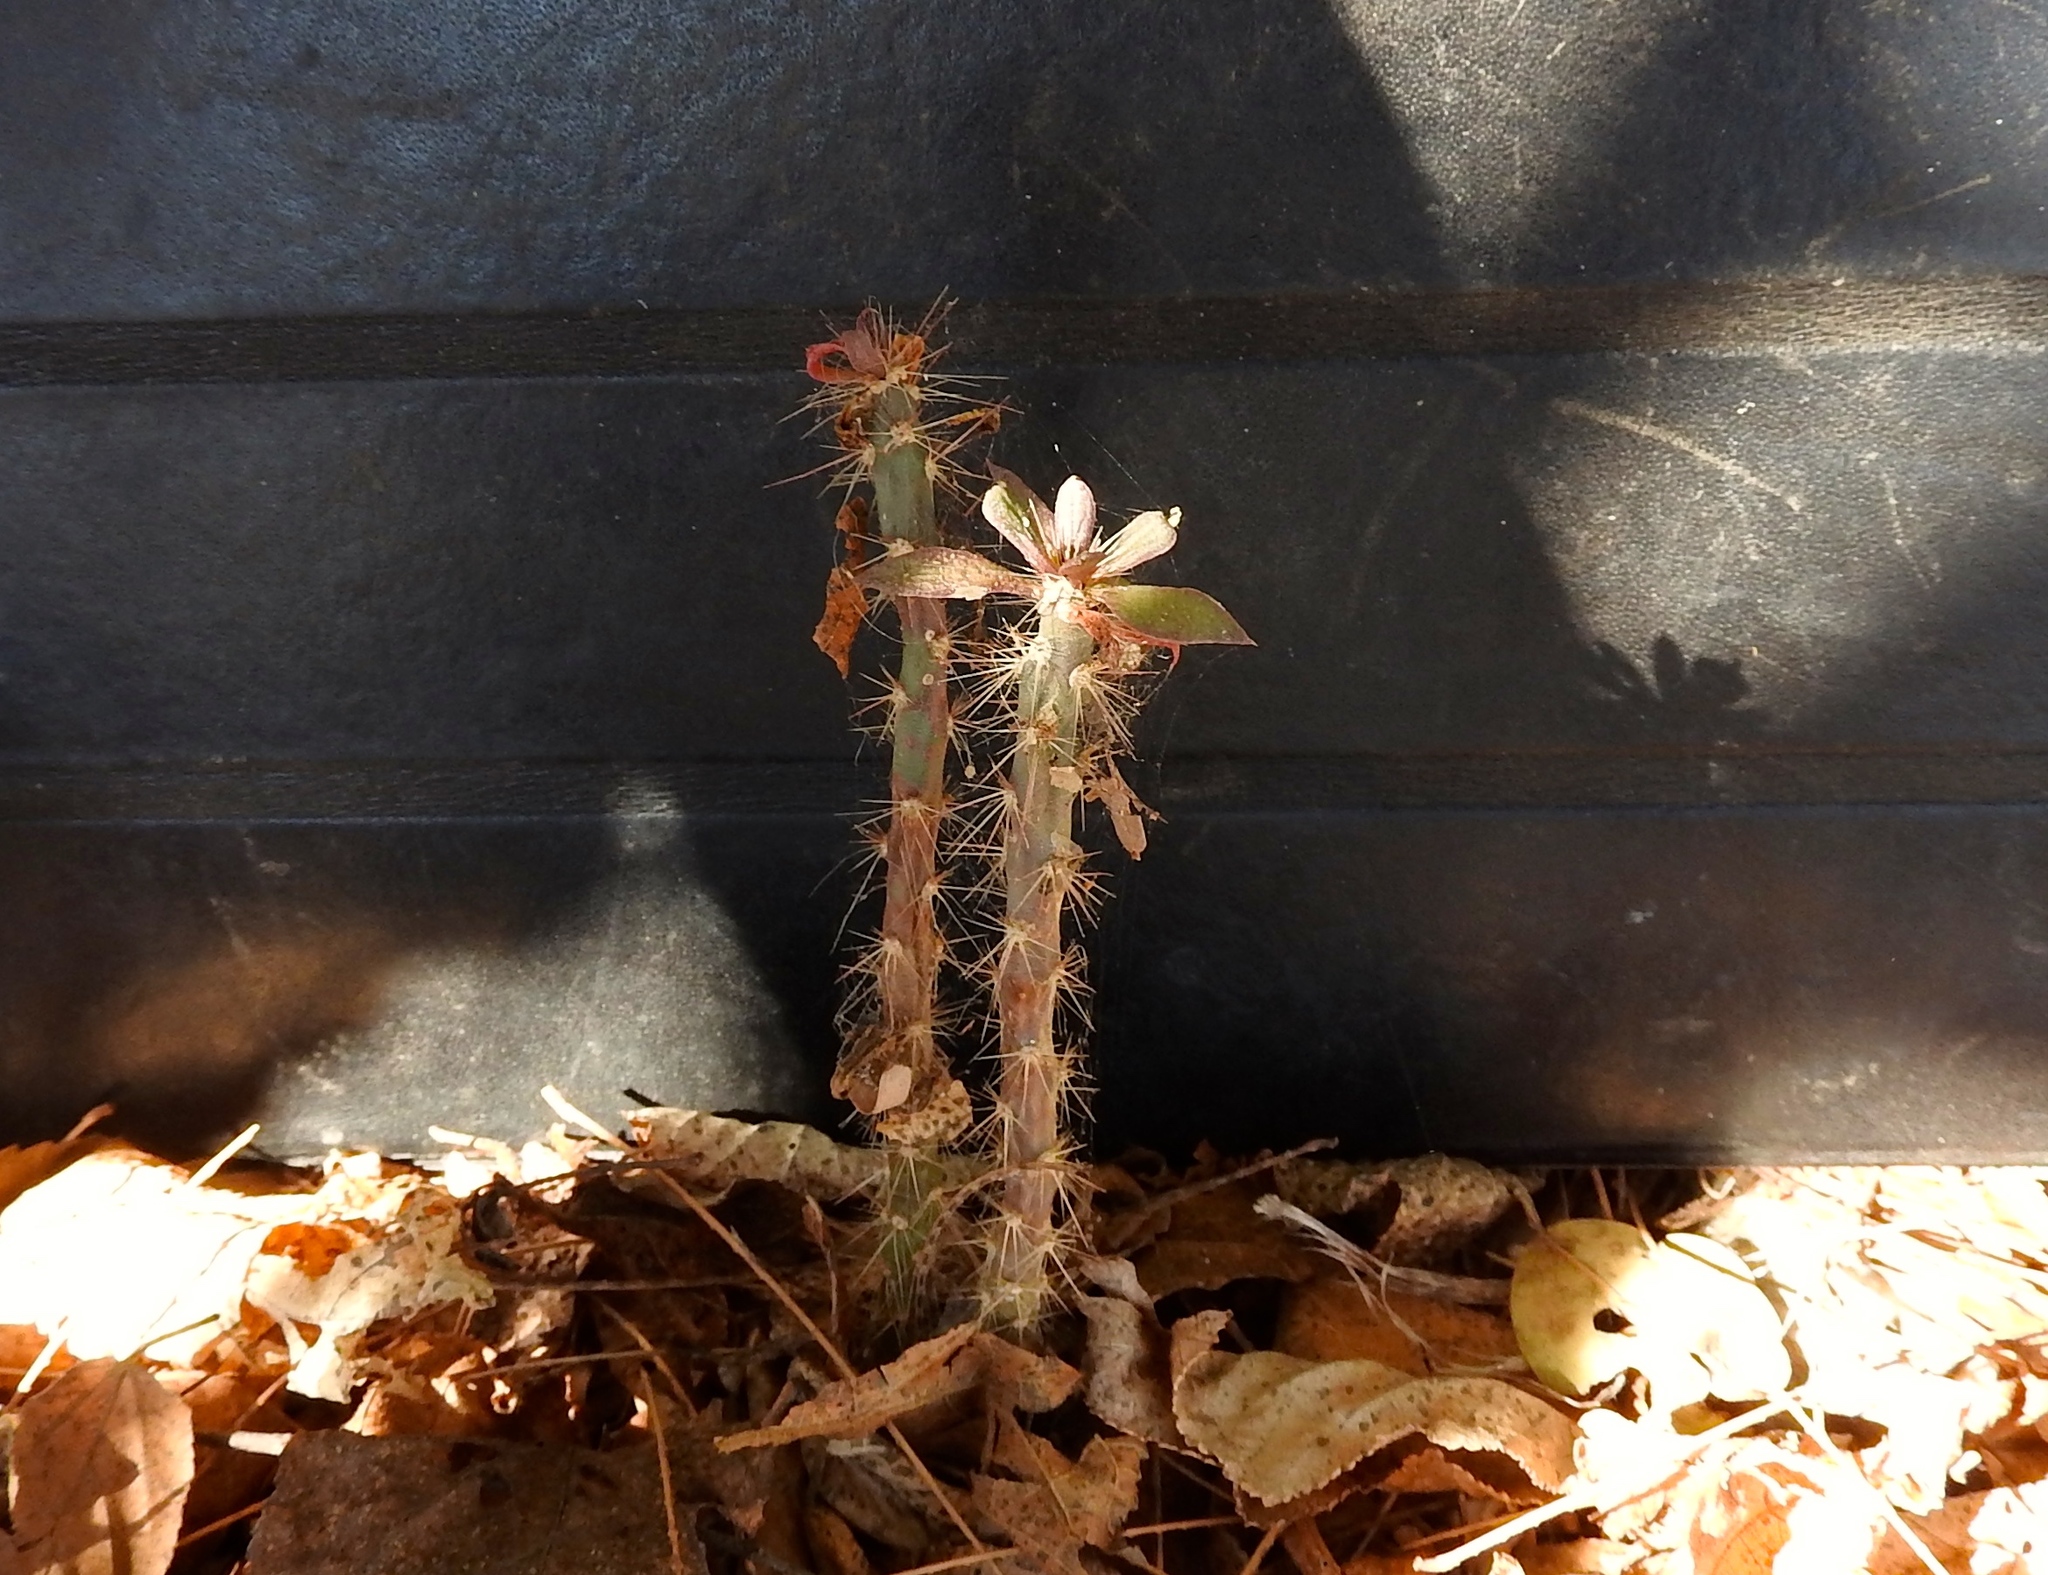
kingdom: Plantae
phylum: Tracheophyta
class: Magnoliopsida
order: Caryophyllales
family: Cactaceae
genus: Pereskiopsis
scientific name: Pereskiopsis
